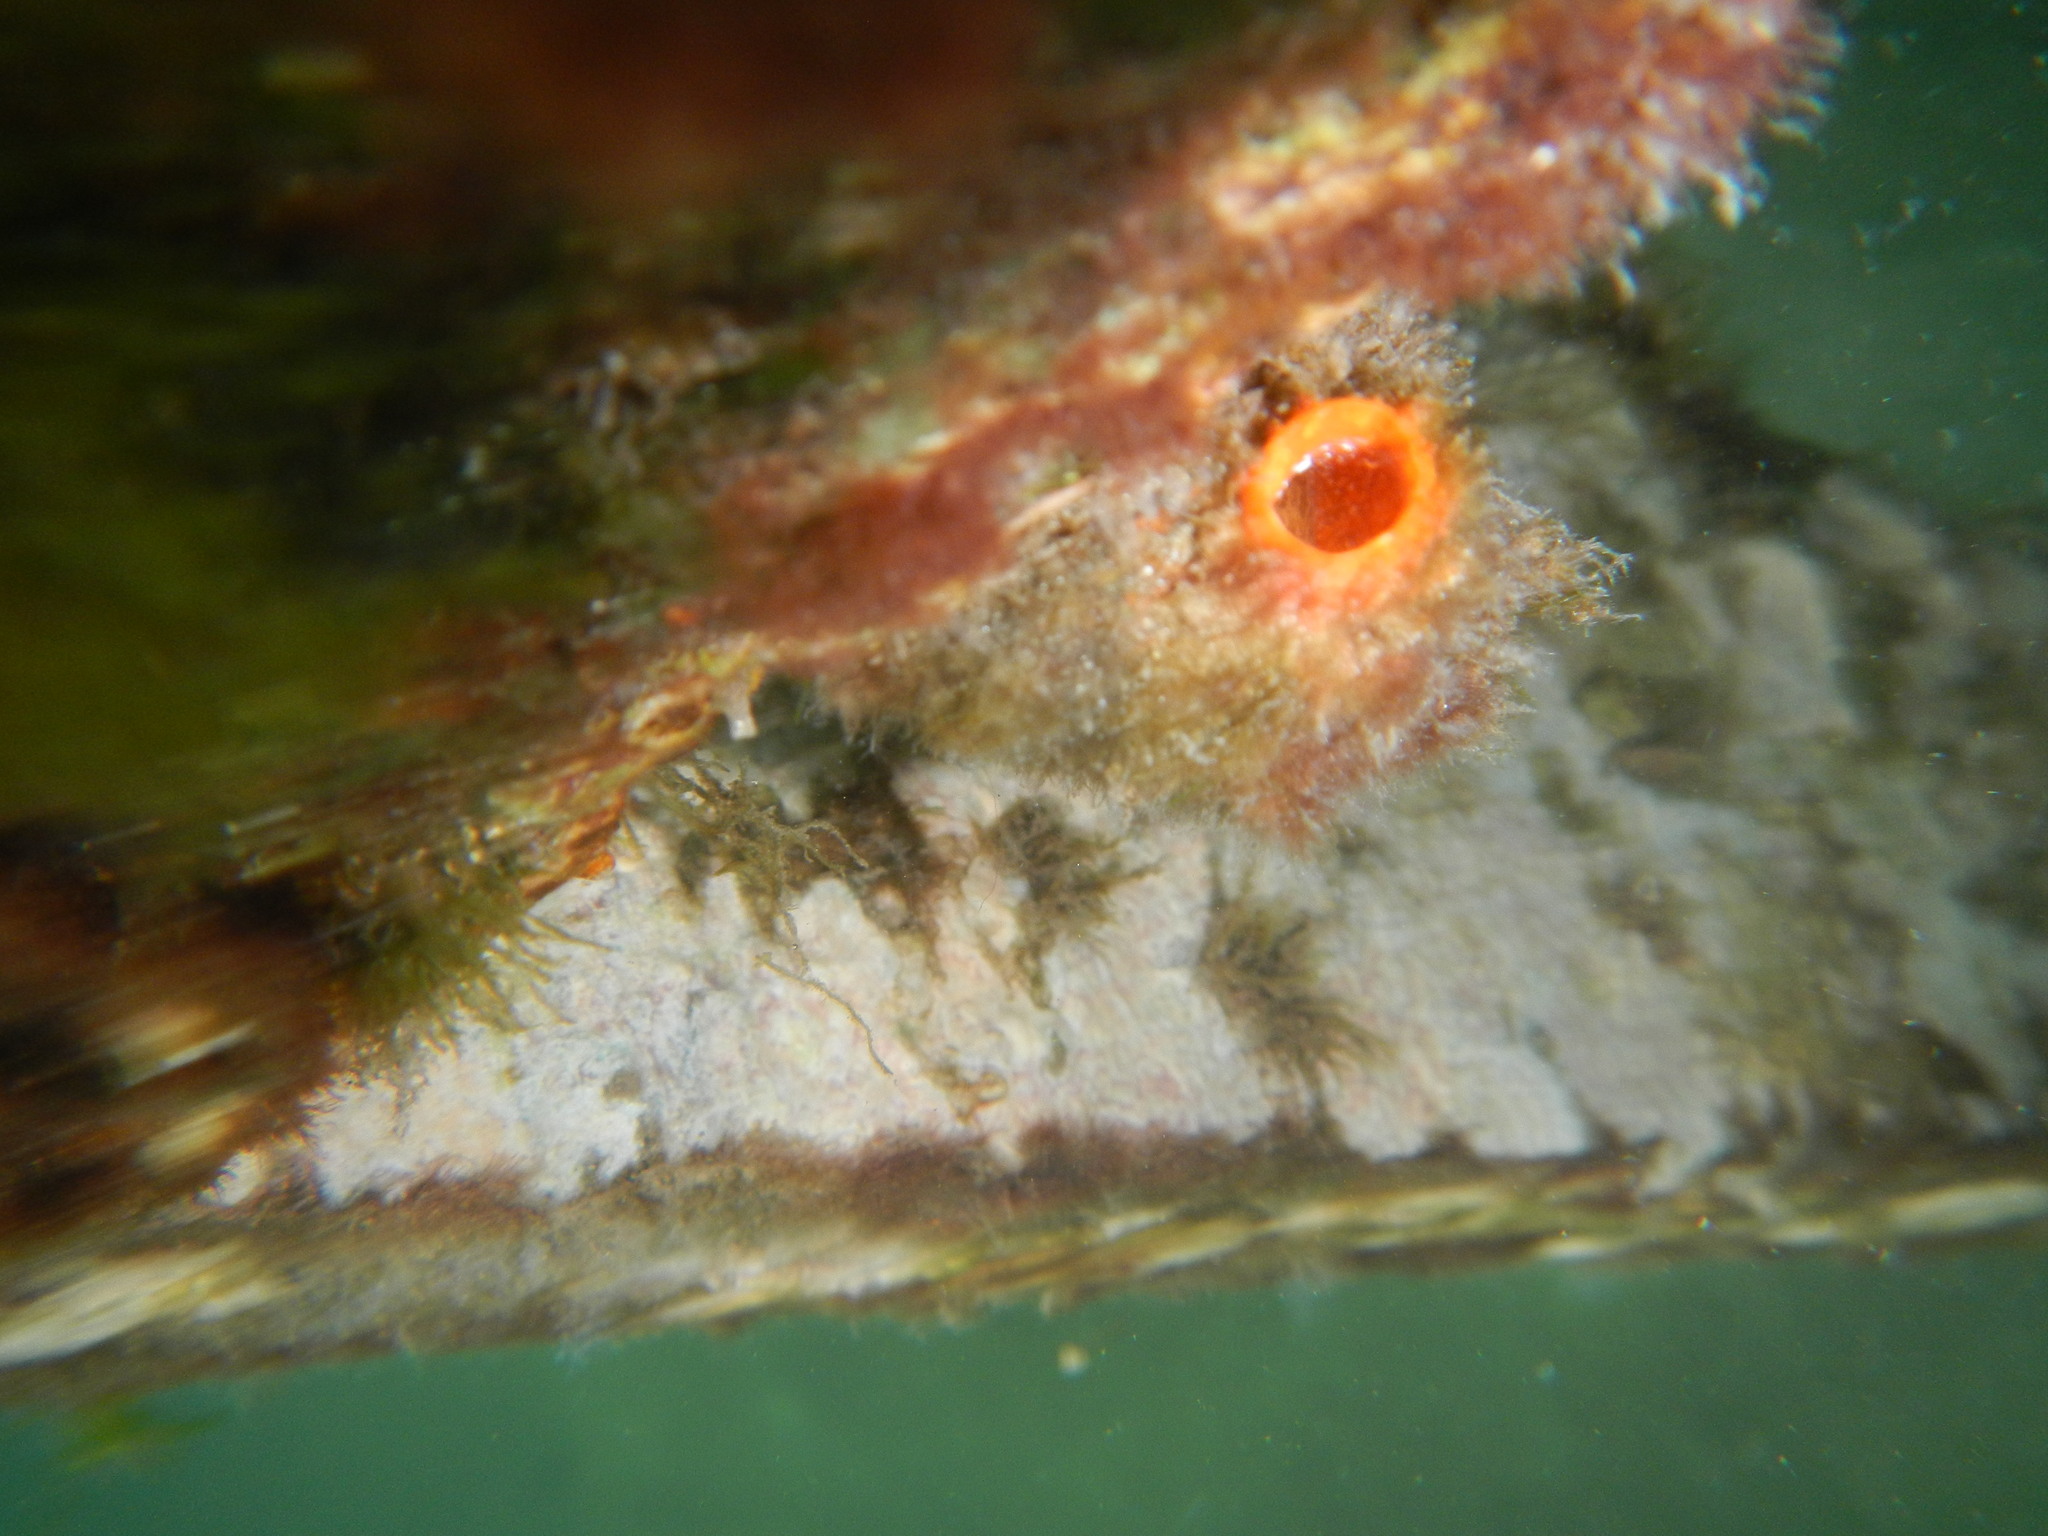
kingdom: Animalia
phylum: Chordata
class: Ascidiacea
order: Stolidobranchia
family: Styelidae
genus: Polycarpa
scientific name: Polycarpa insulsa
